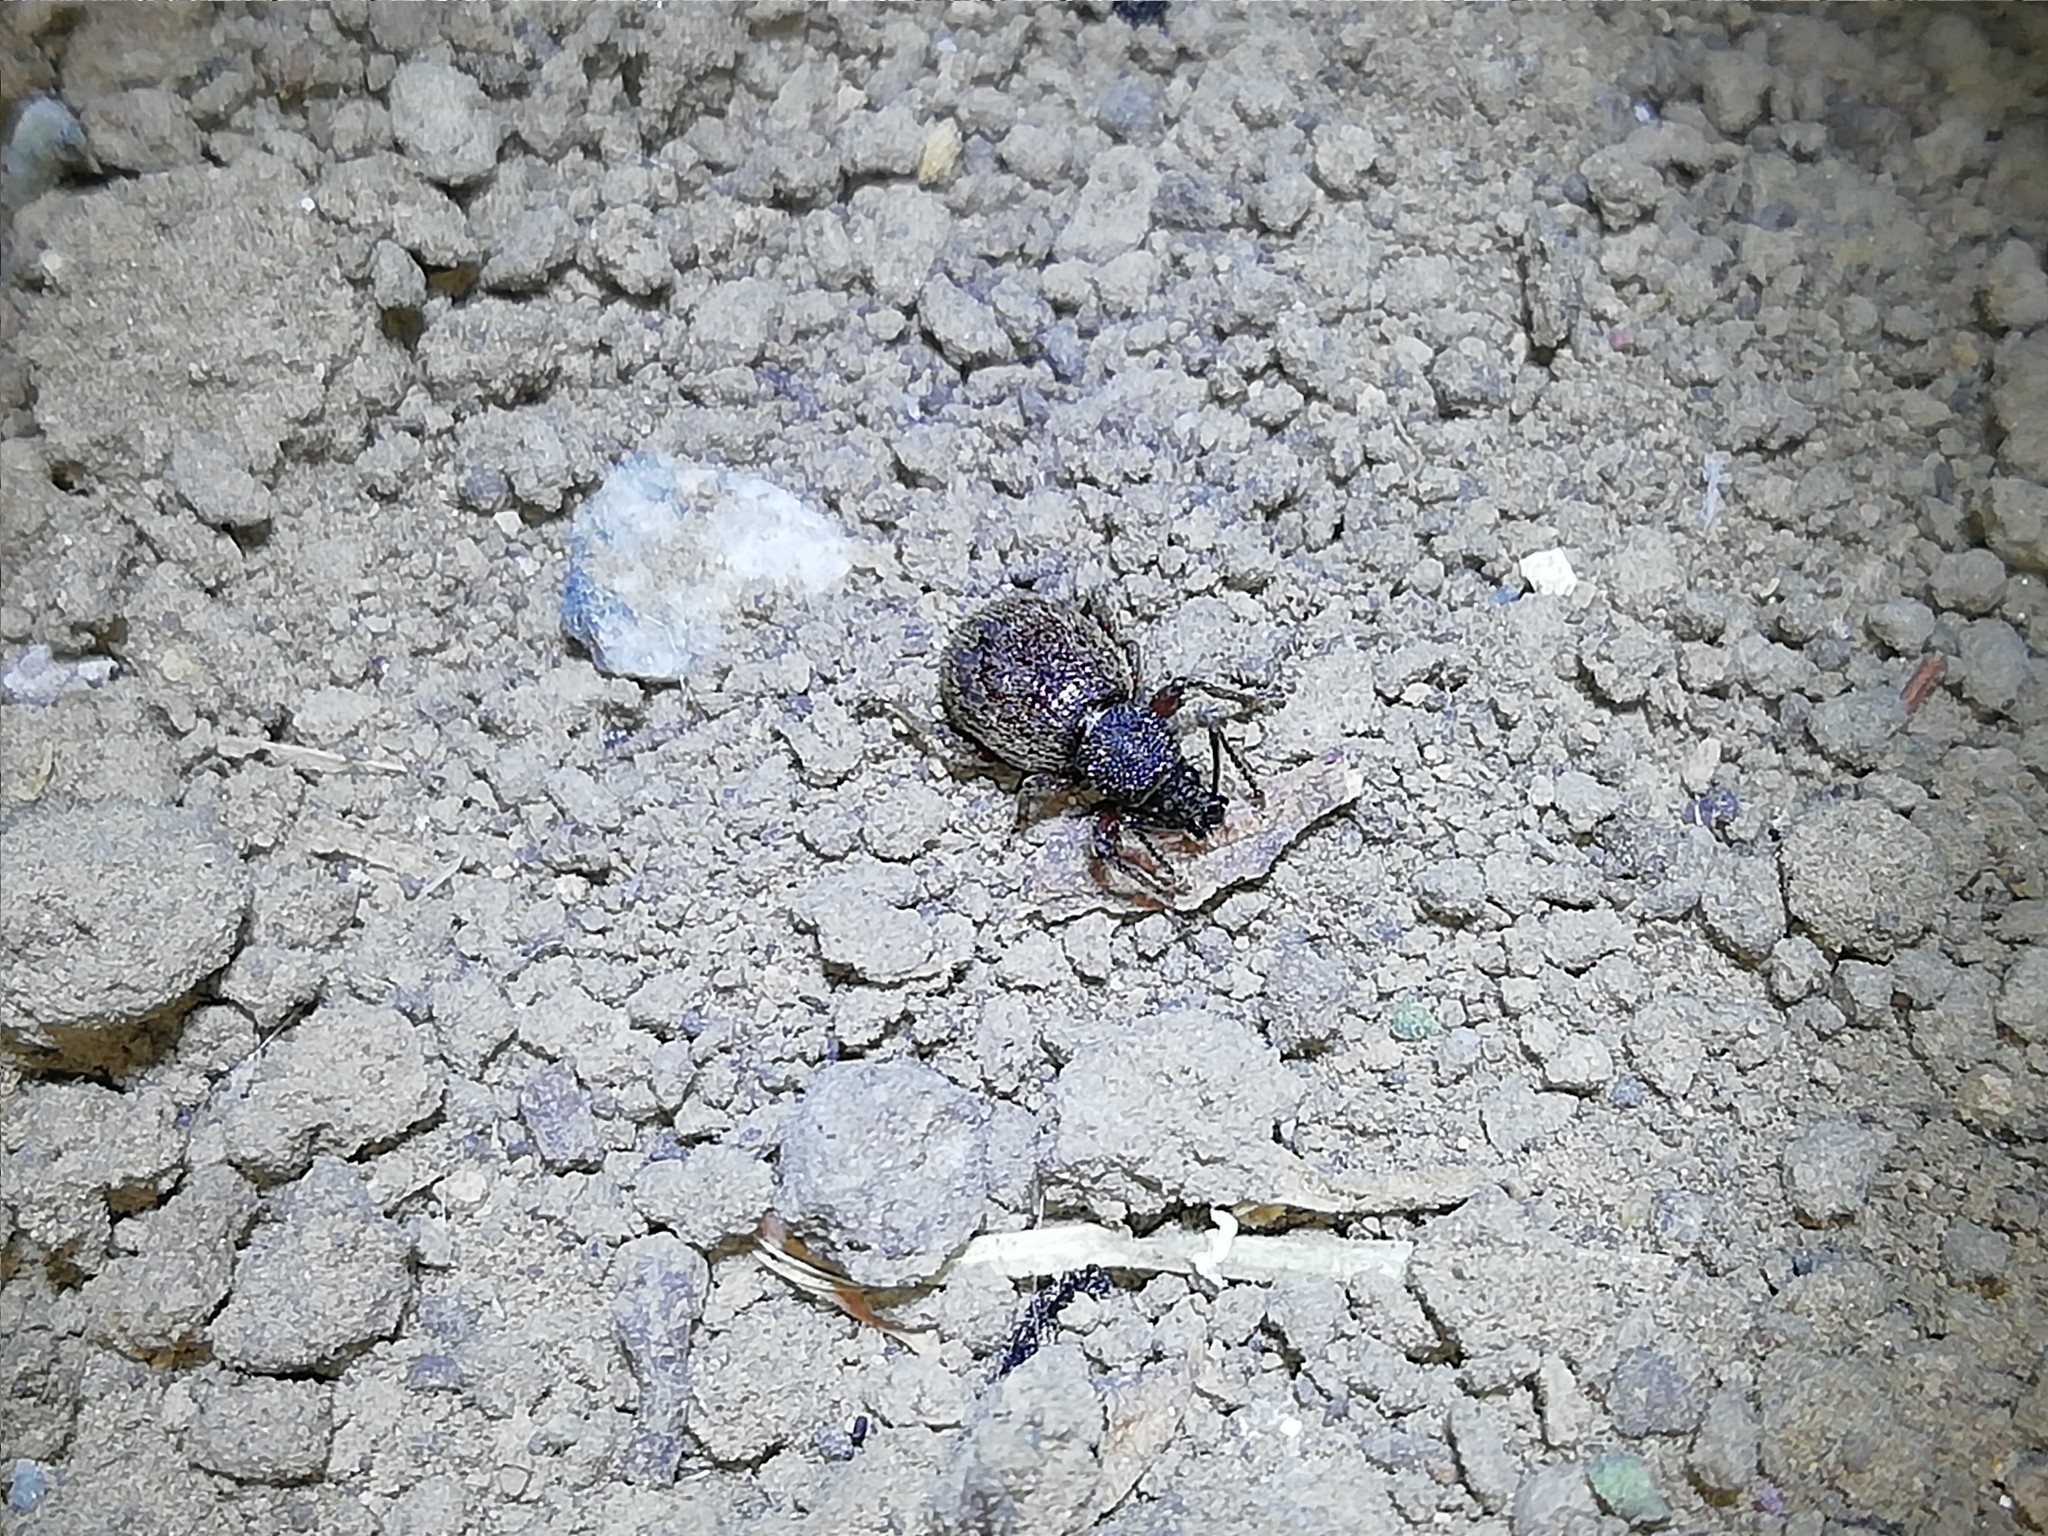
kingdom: Animalia
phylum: Arthropoda
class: Insecta
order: Coleoptera
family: Curculionidae
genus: Otiorhynchus
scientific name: Otiorhynchus smreczynskii
